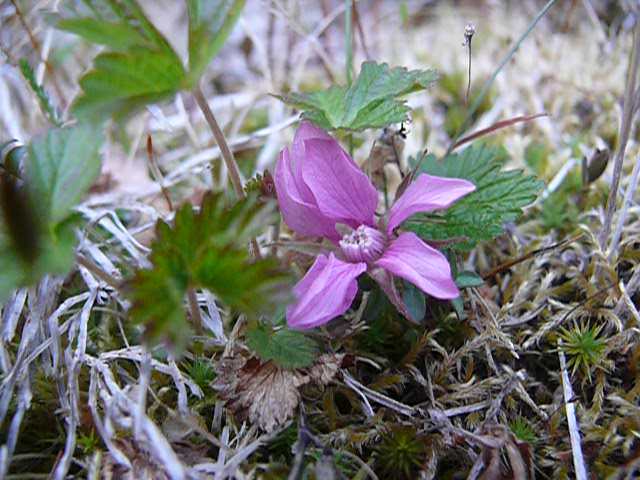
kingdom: Plantae
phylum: Tracheophyta
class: Magnoliopsida
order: Rosales
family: Rosaceae
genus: Rubus
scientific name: Rubus arcticus
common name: Arctic bramble
